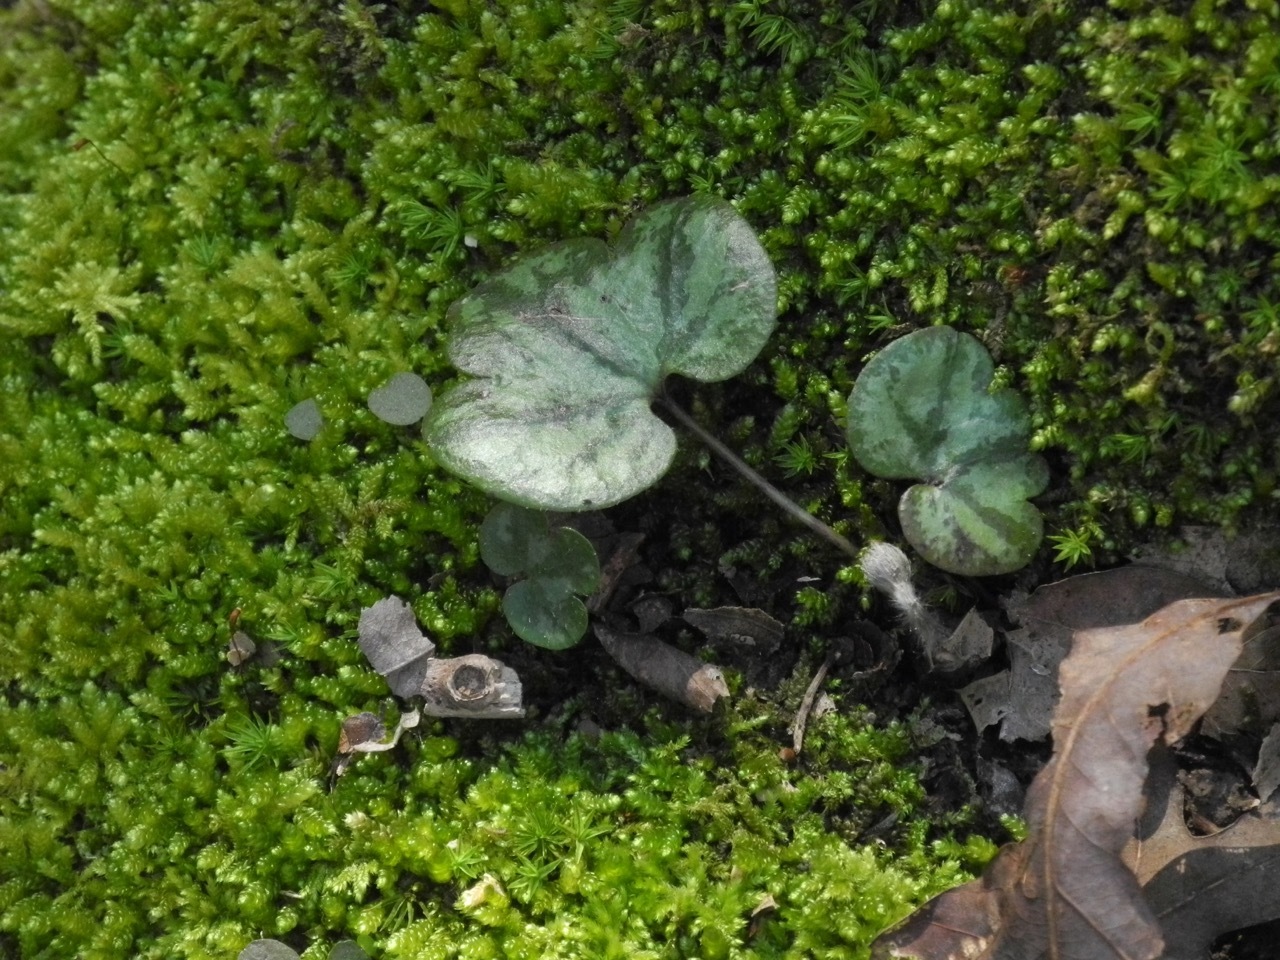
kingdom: Plantae
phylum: Tracheophyta
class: Magnoliopsida
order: Ranunculales
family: Ranunculaceae
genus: Hepatica
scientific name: Hepatica americana
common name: American hepatica
